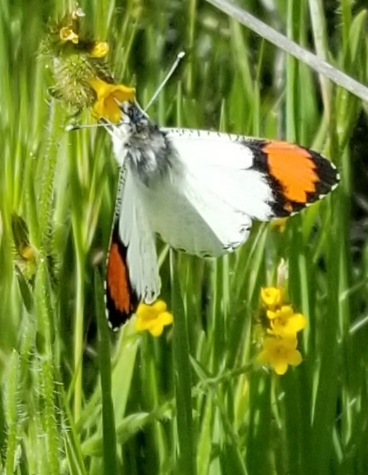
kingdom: Animalia
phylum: Arthropoda
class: Insecta
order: Lepidoptera
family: Pieridae
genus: Anthocharis
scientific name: Anthocharis sara
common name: Sara's orangetip
